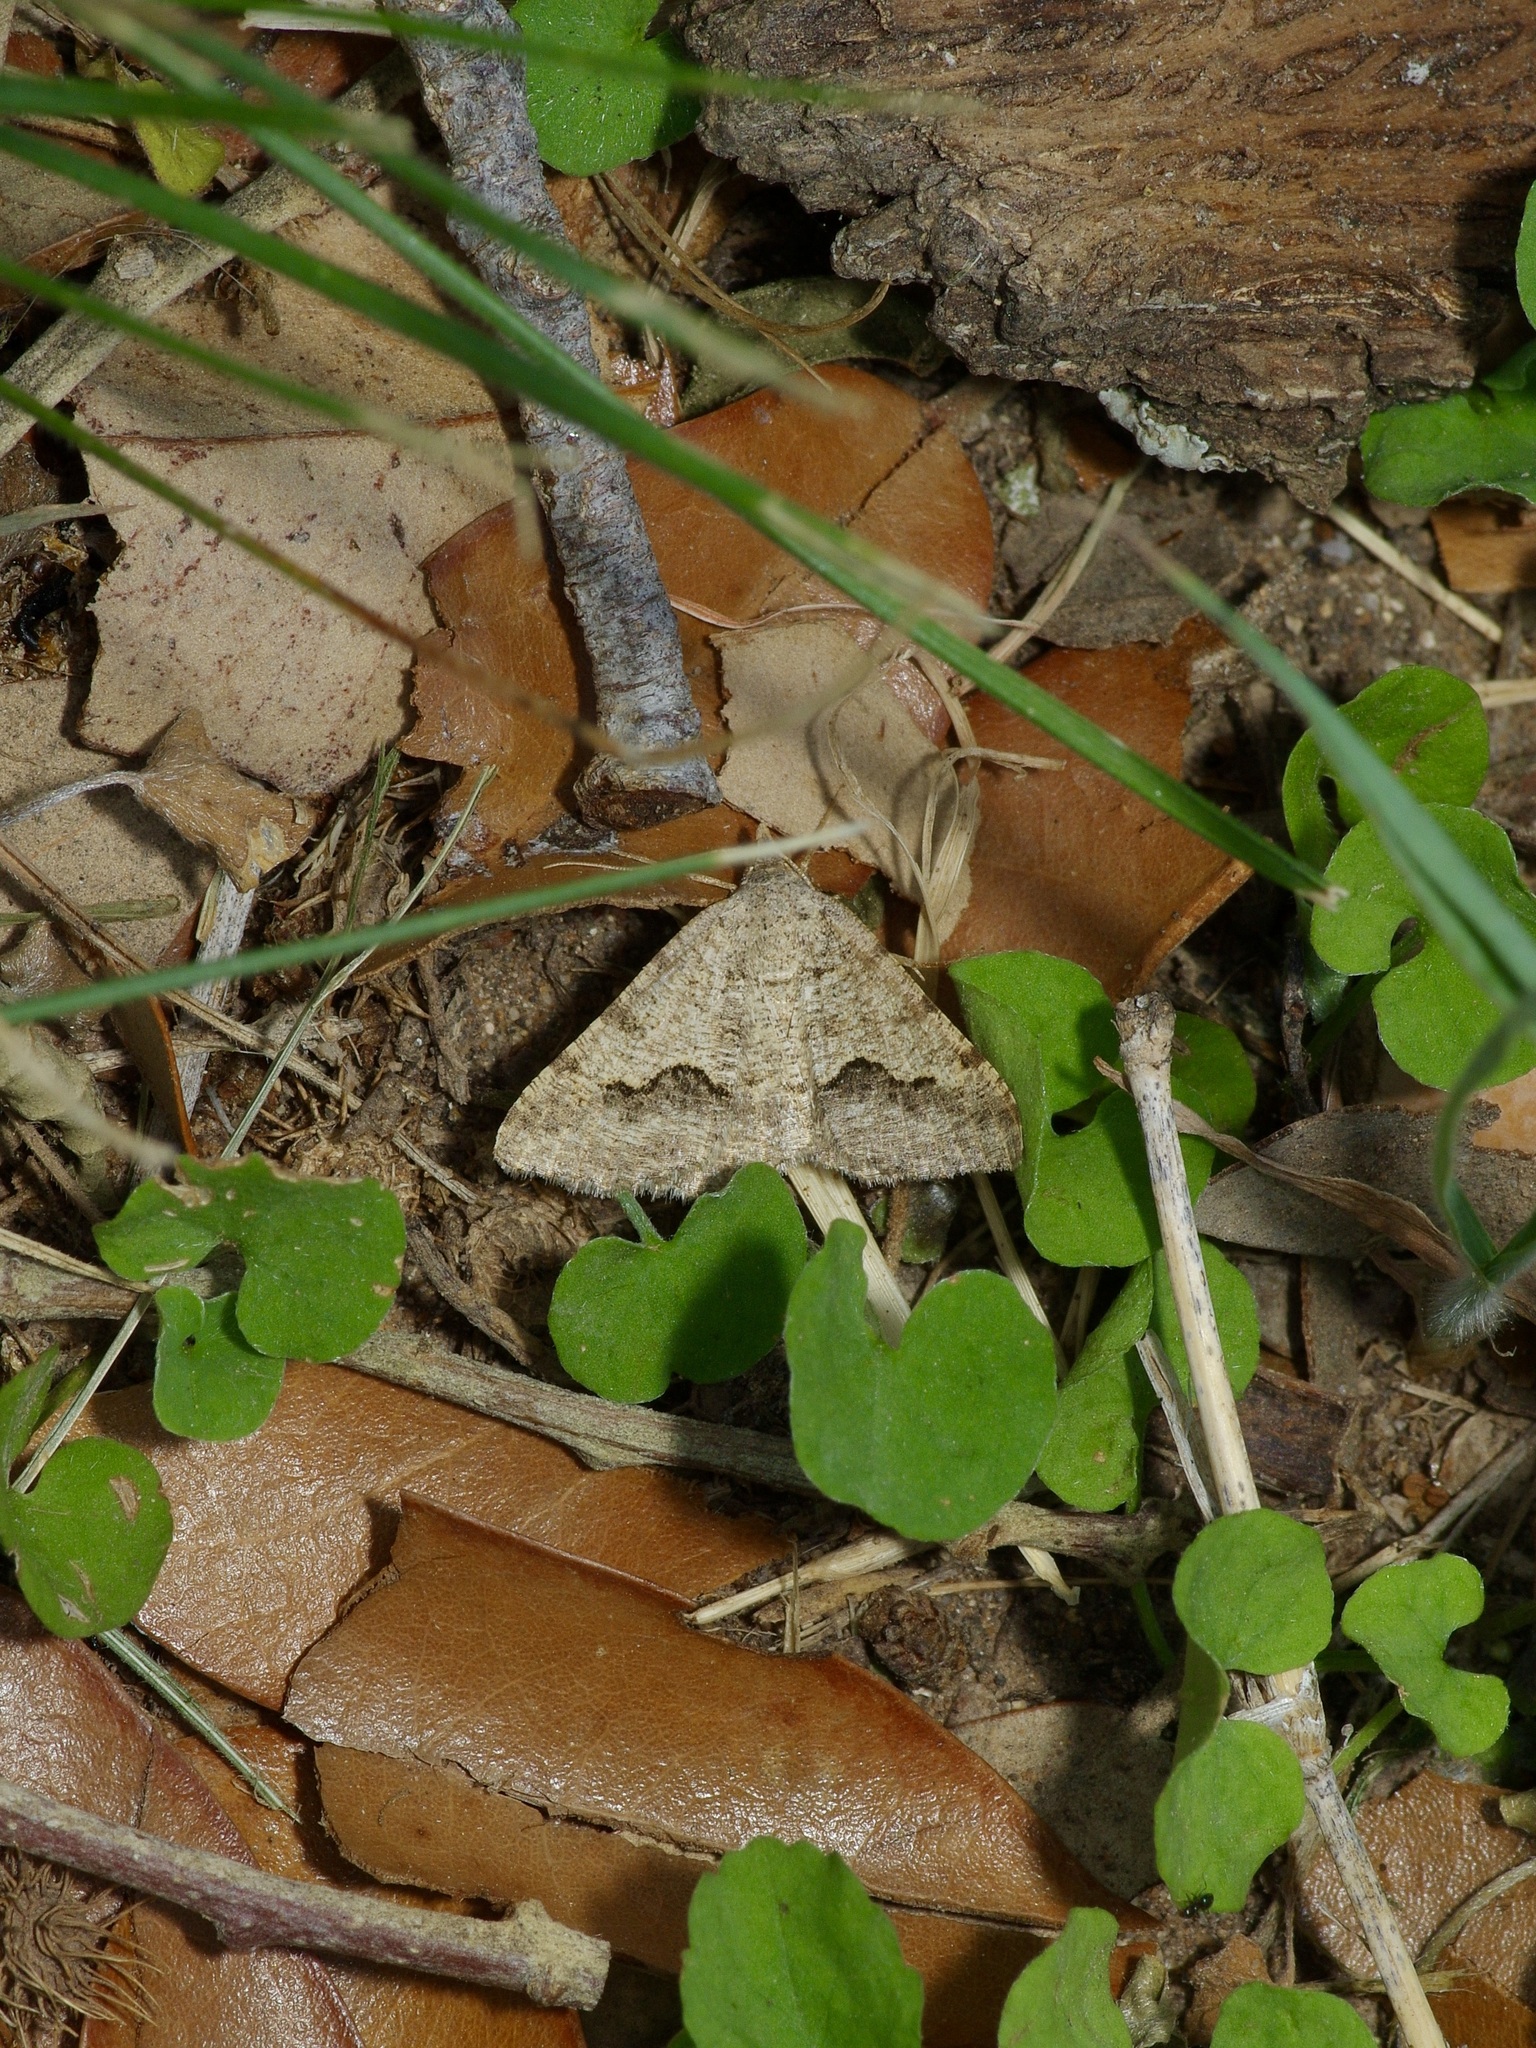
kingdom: Animalia
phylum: Arthropoda
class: Insecta
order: Lepidoptera
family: Geometridae
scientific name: Geometridae
